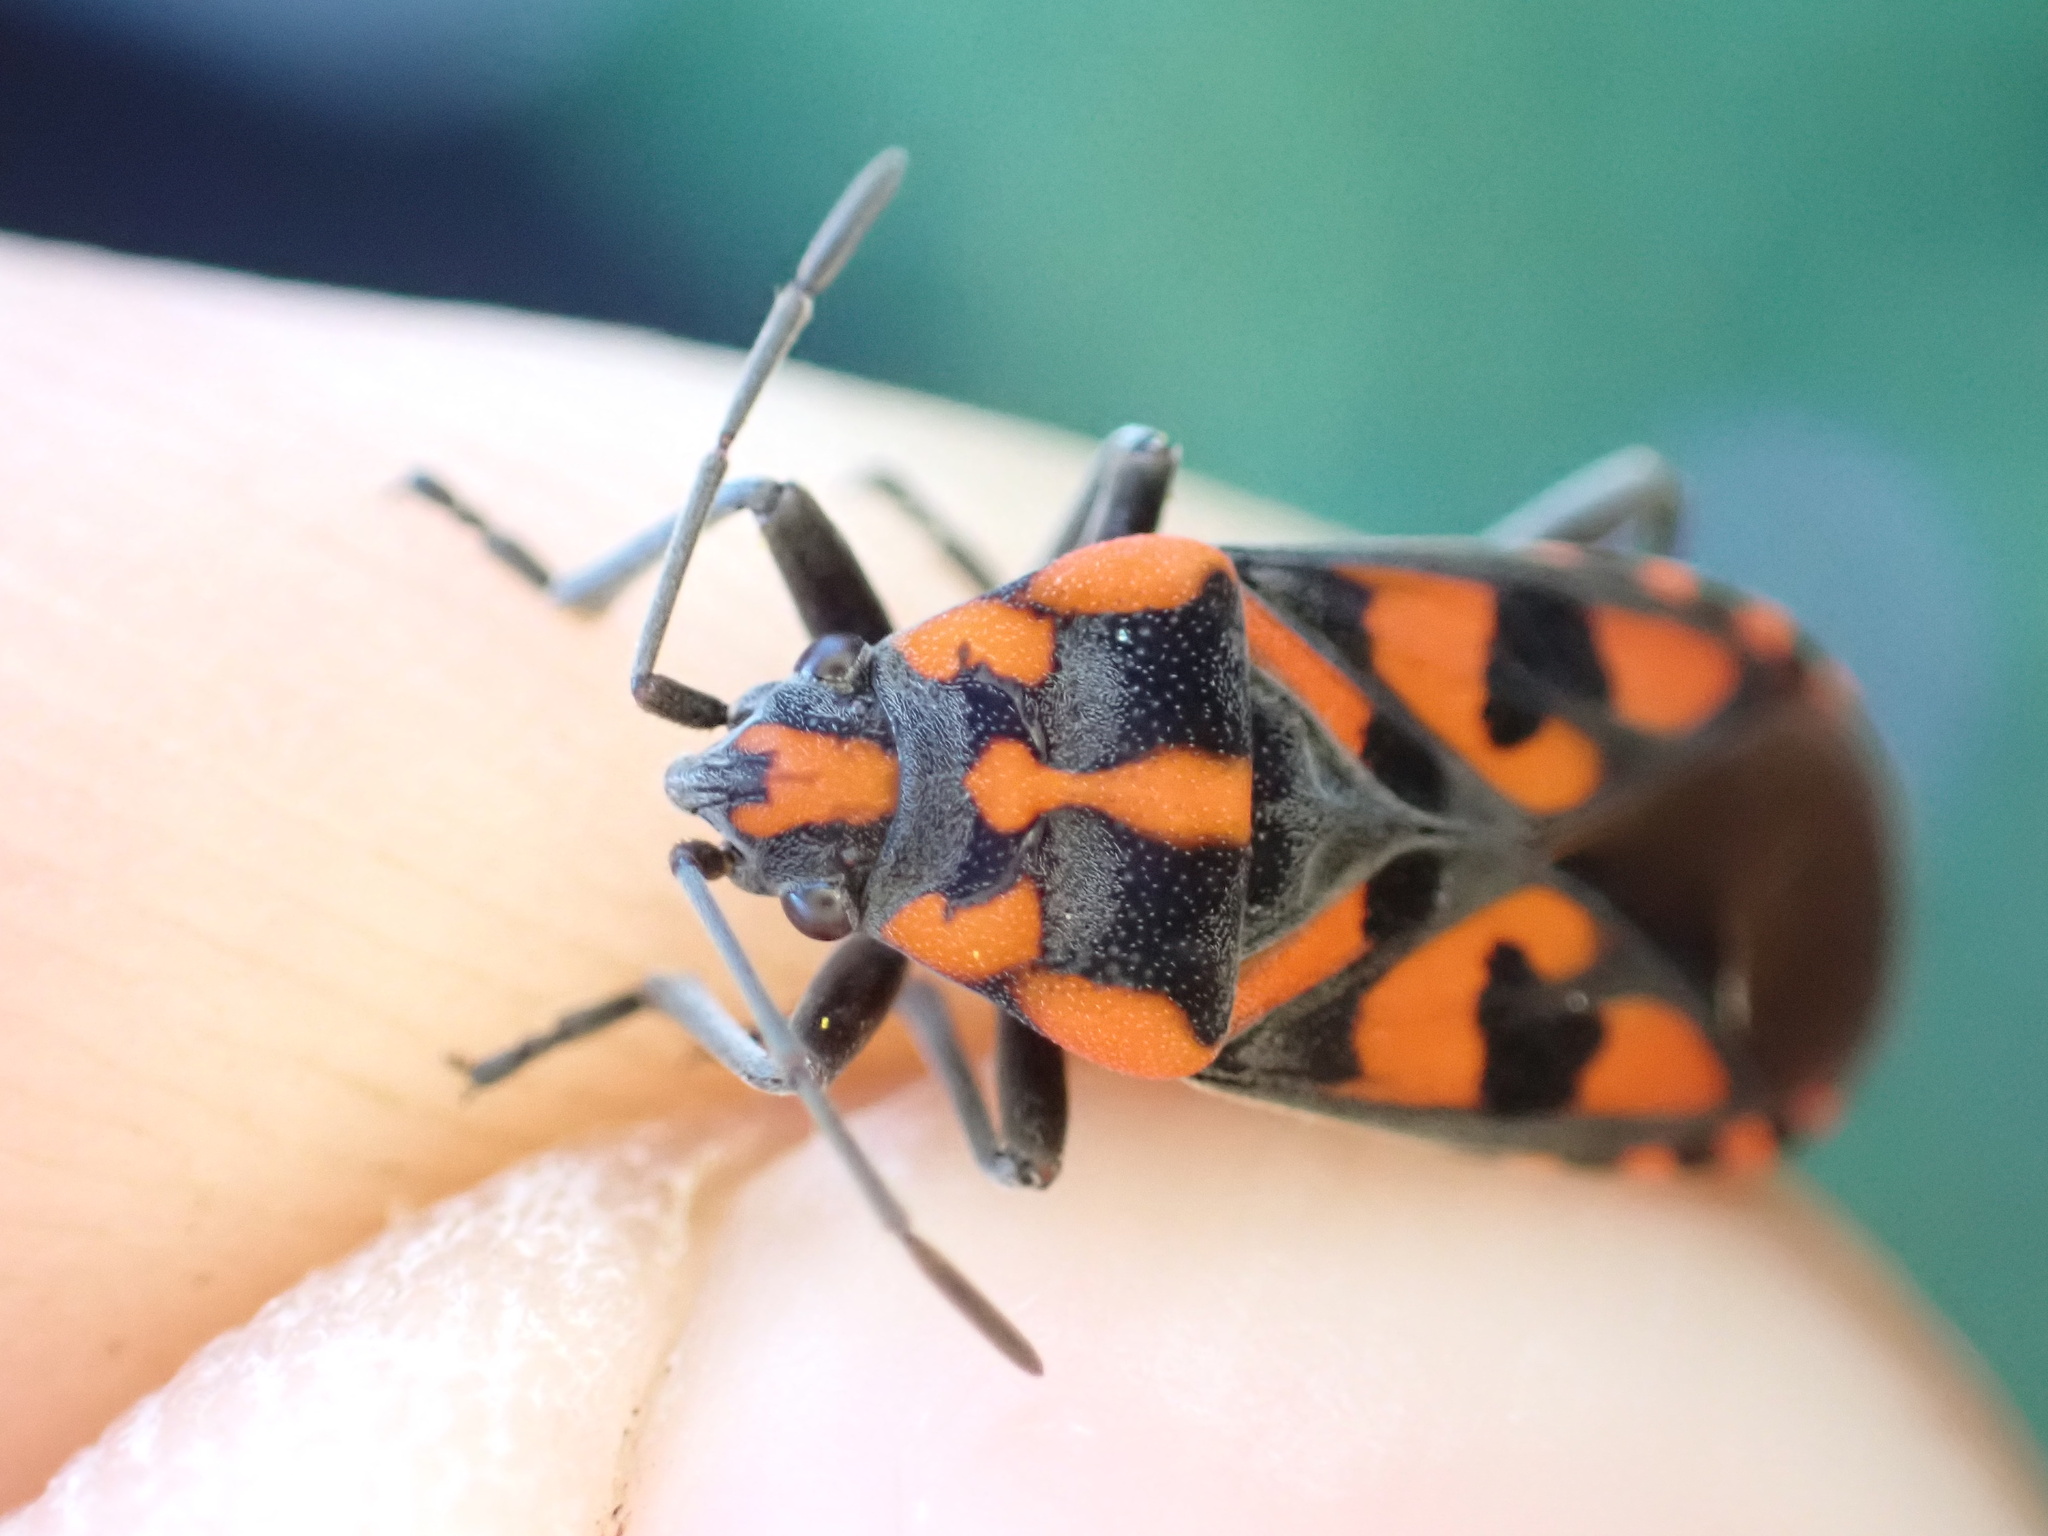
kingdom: Animalia
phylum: Arthropoda
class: Insecta
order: Hemiptera
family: Lygaeidae
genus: Spilostethus
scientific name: Spilostethus saxatilis
